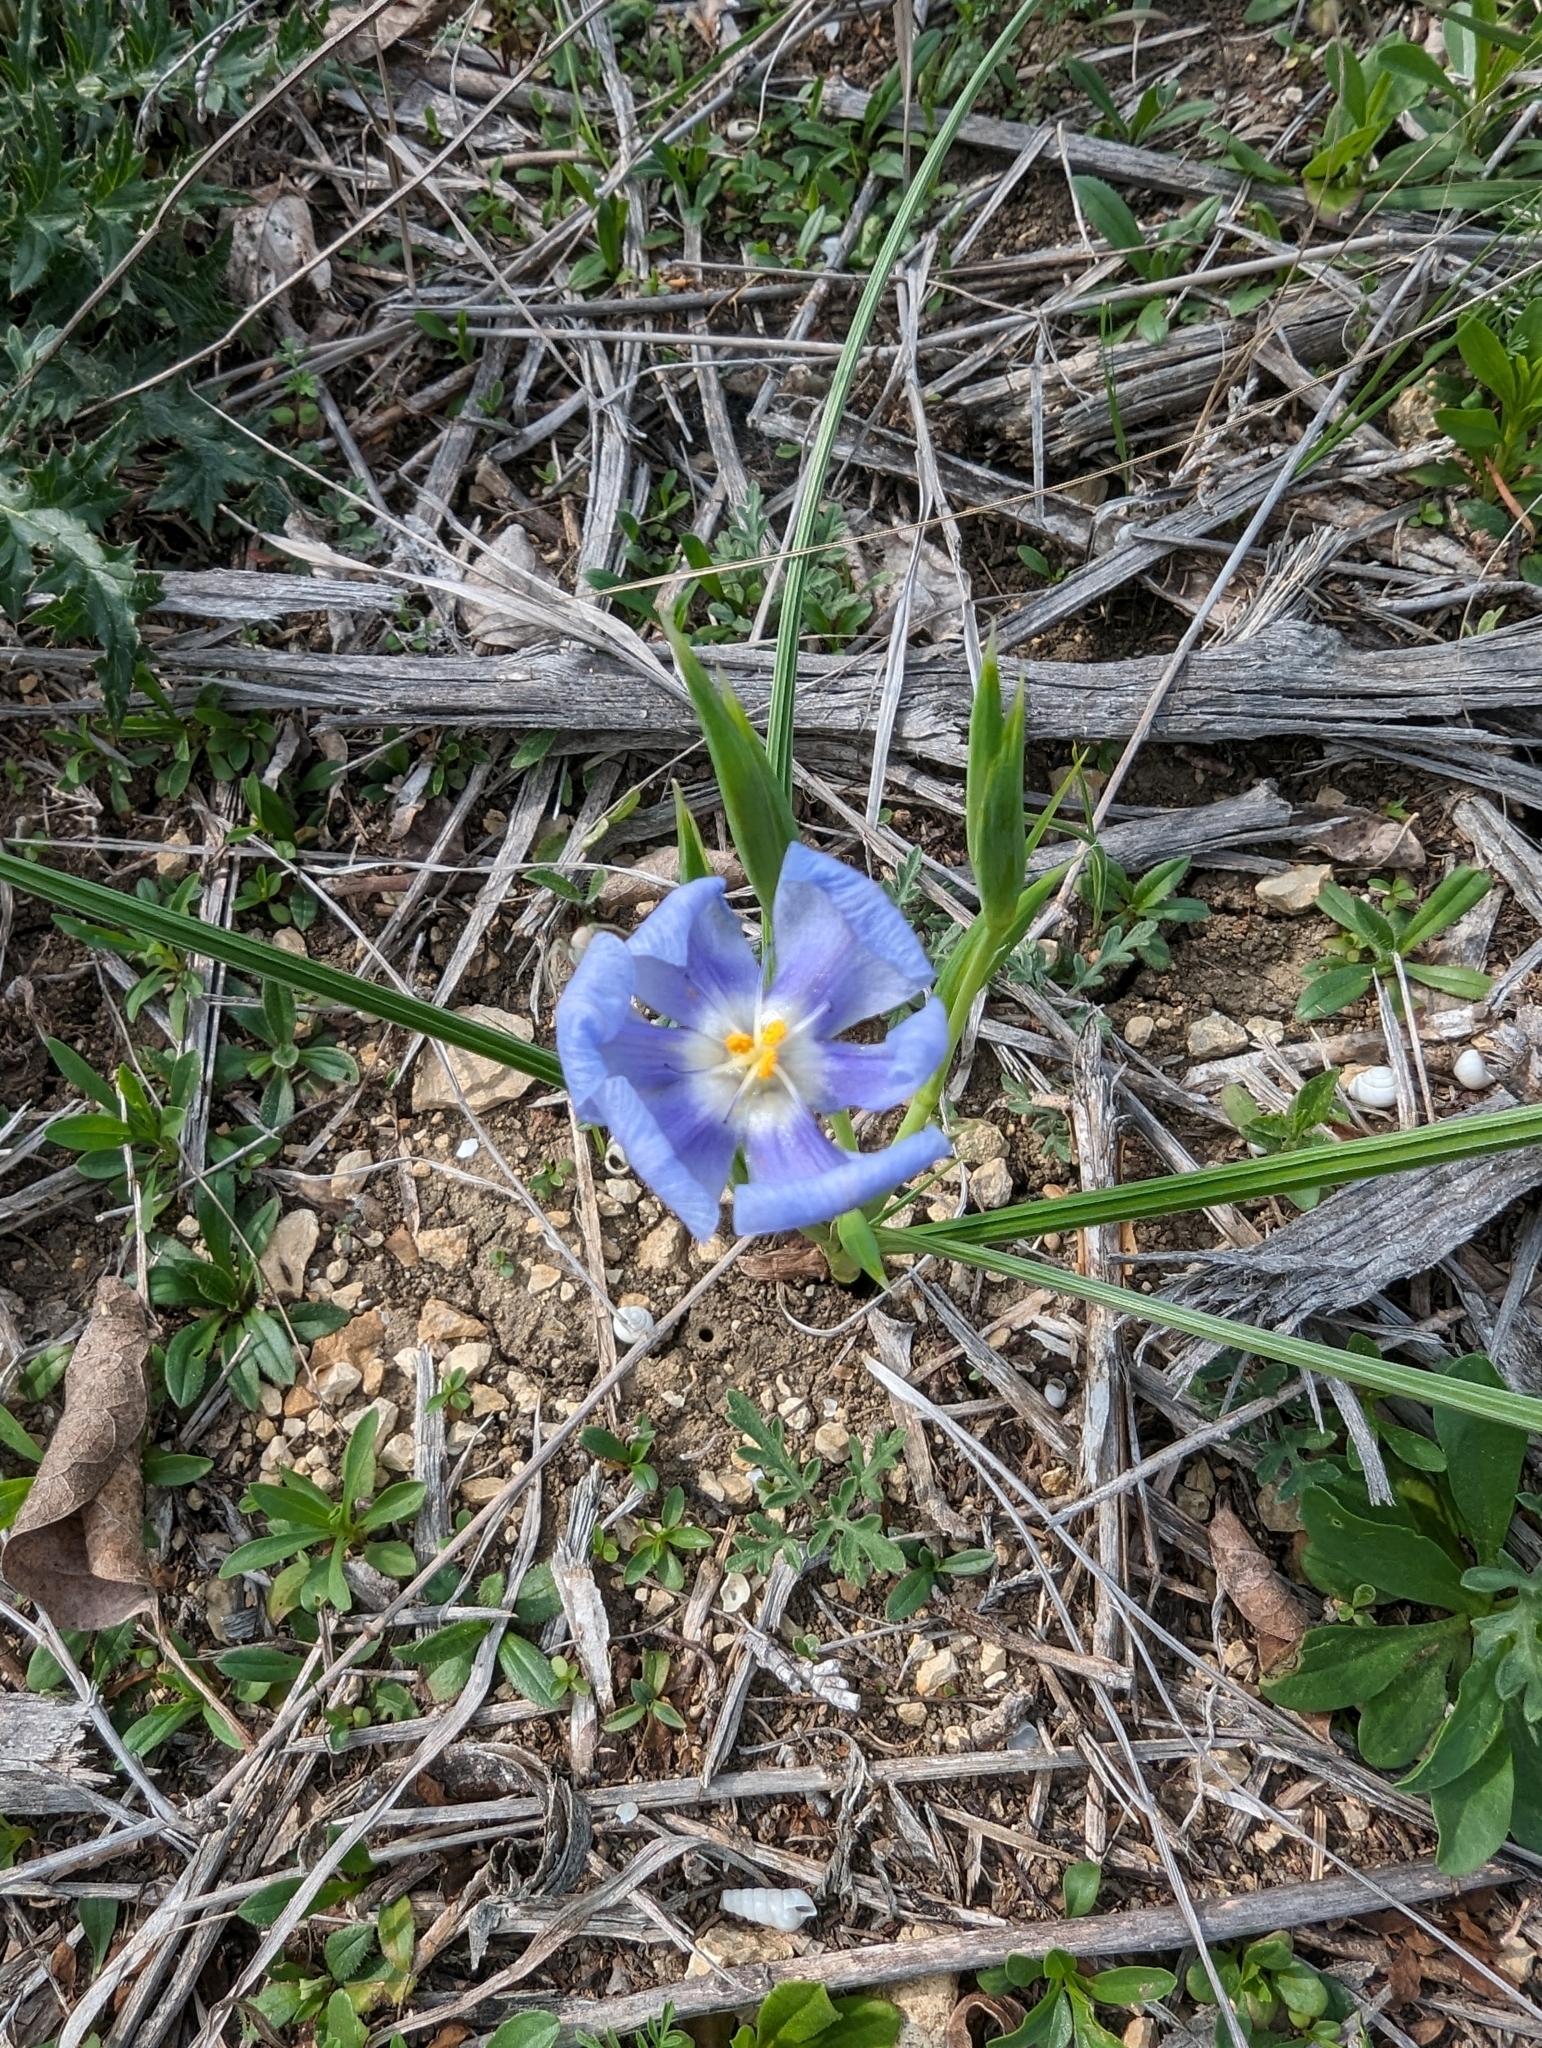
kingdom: Plantae
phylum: Tracheophyta
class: Liliopsida
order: Asparagales
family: Iridaceae
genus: Nemastylis
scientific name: Nemastylis geminiflora
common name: Prairie celestial
